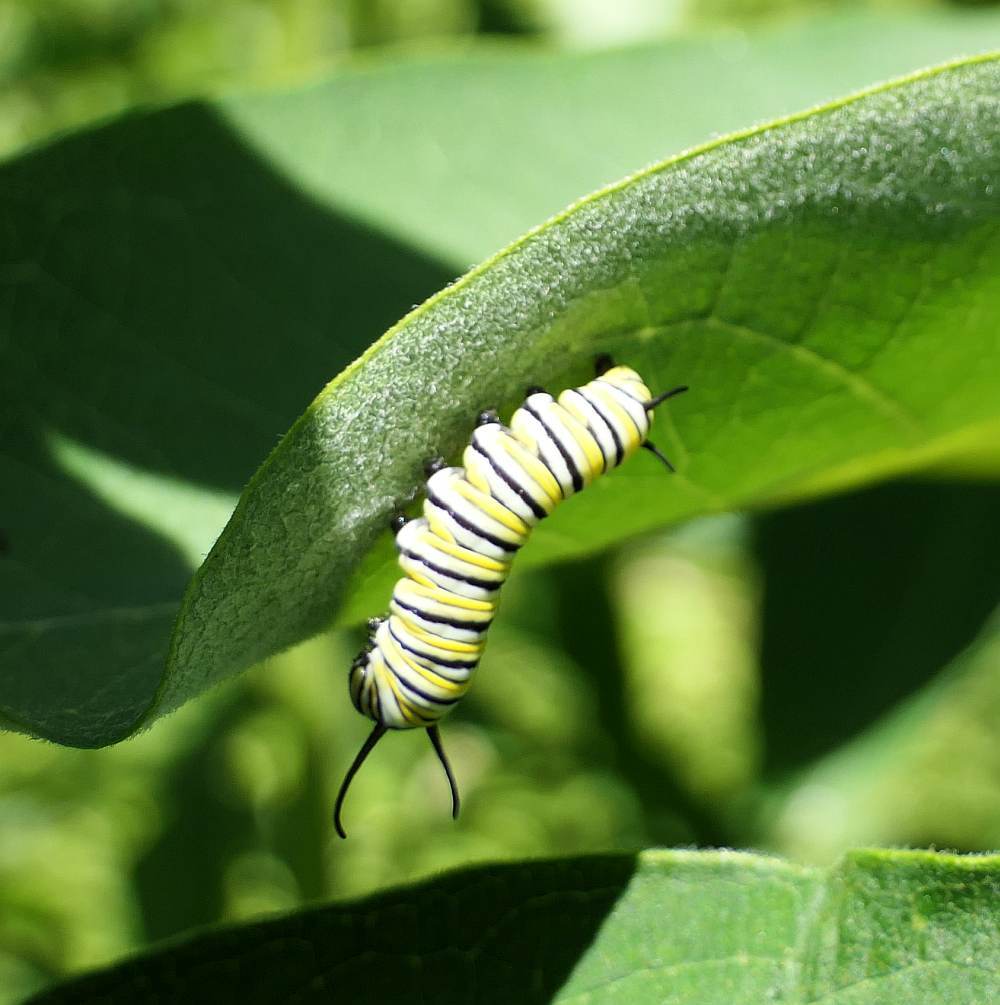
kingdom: Animalia
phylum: Arthropoda
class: Insecta
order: Lepidoptera
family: Nymphalidae
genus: Danaus
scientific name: Danaus plexippus
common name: Monarch
